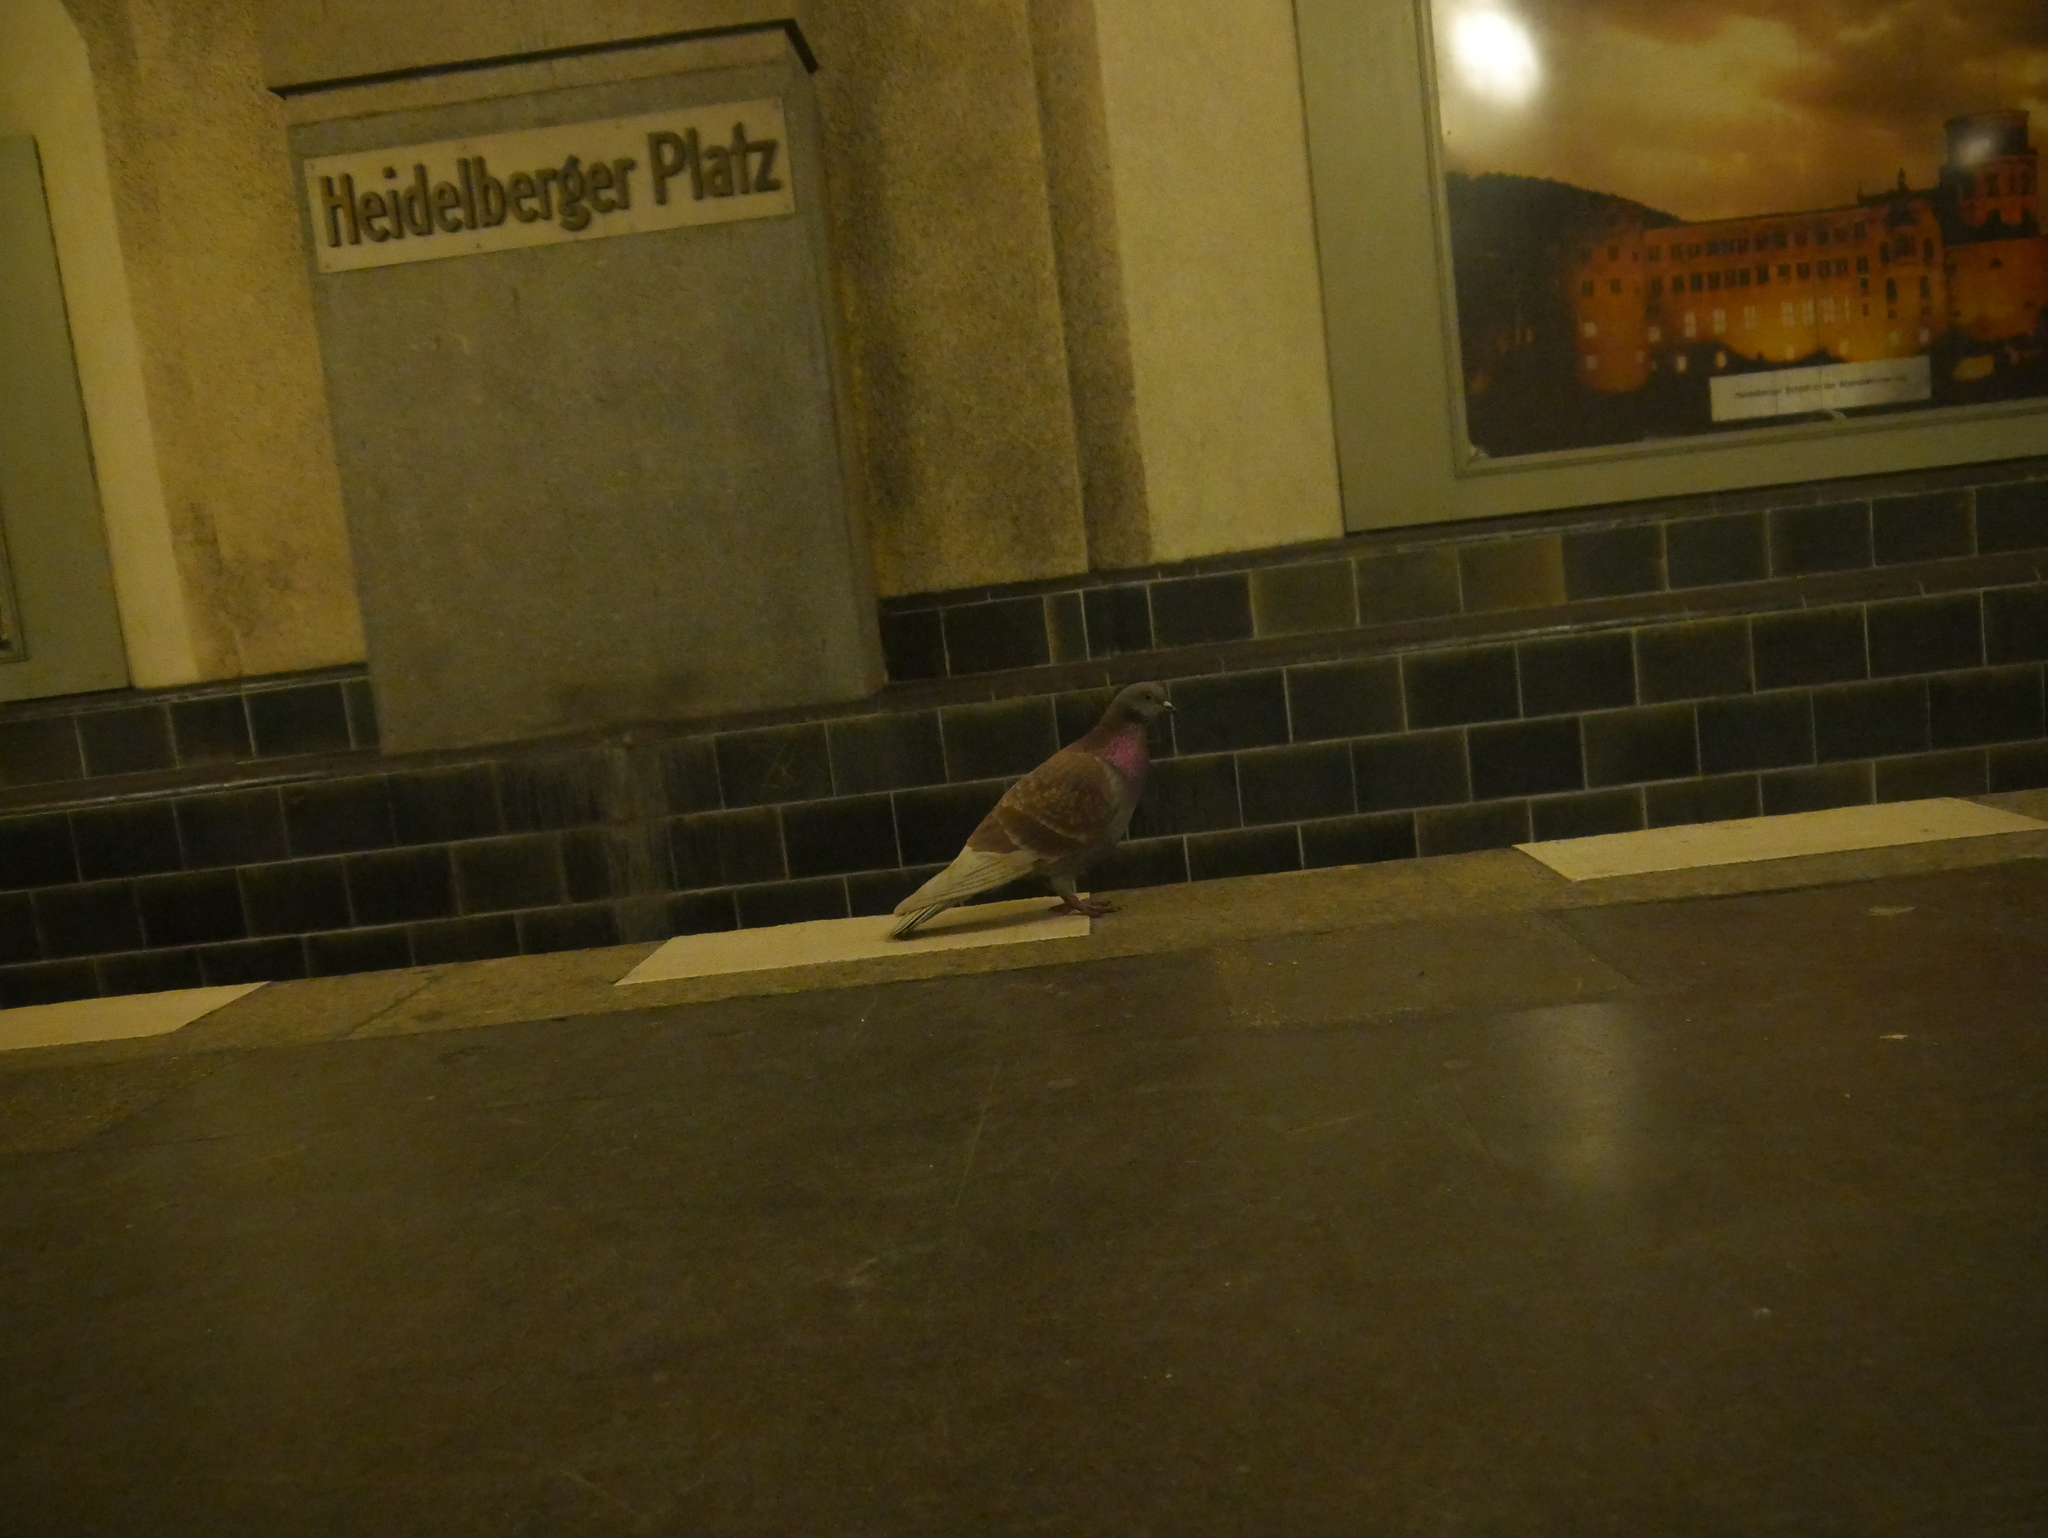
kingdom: Animalia
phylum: Chordata
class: Aves
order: Columbiformes
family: Columbidae
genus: Columba
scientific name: Columba livia
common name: Rock pigeon
